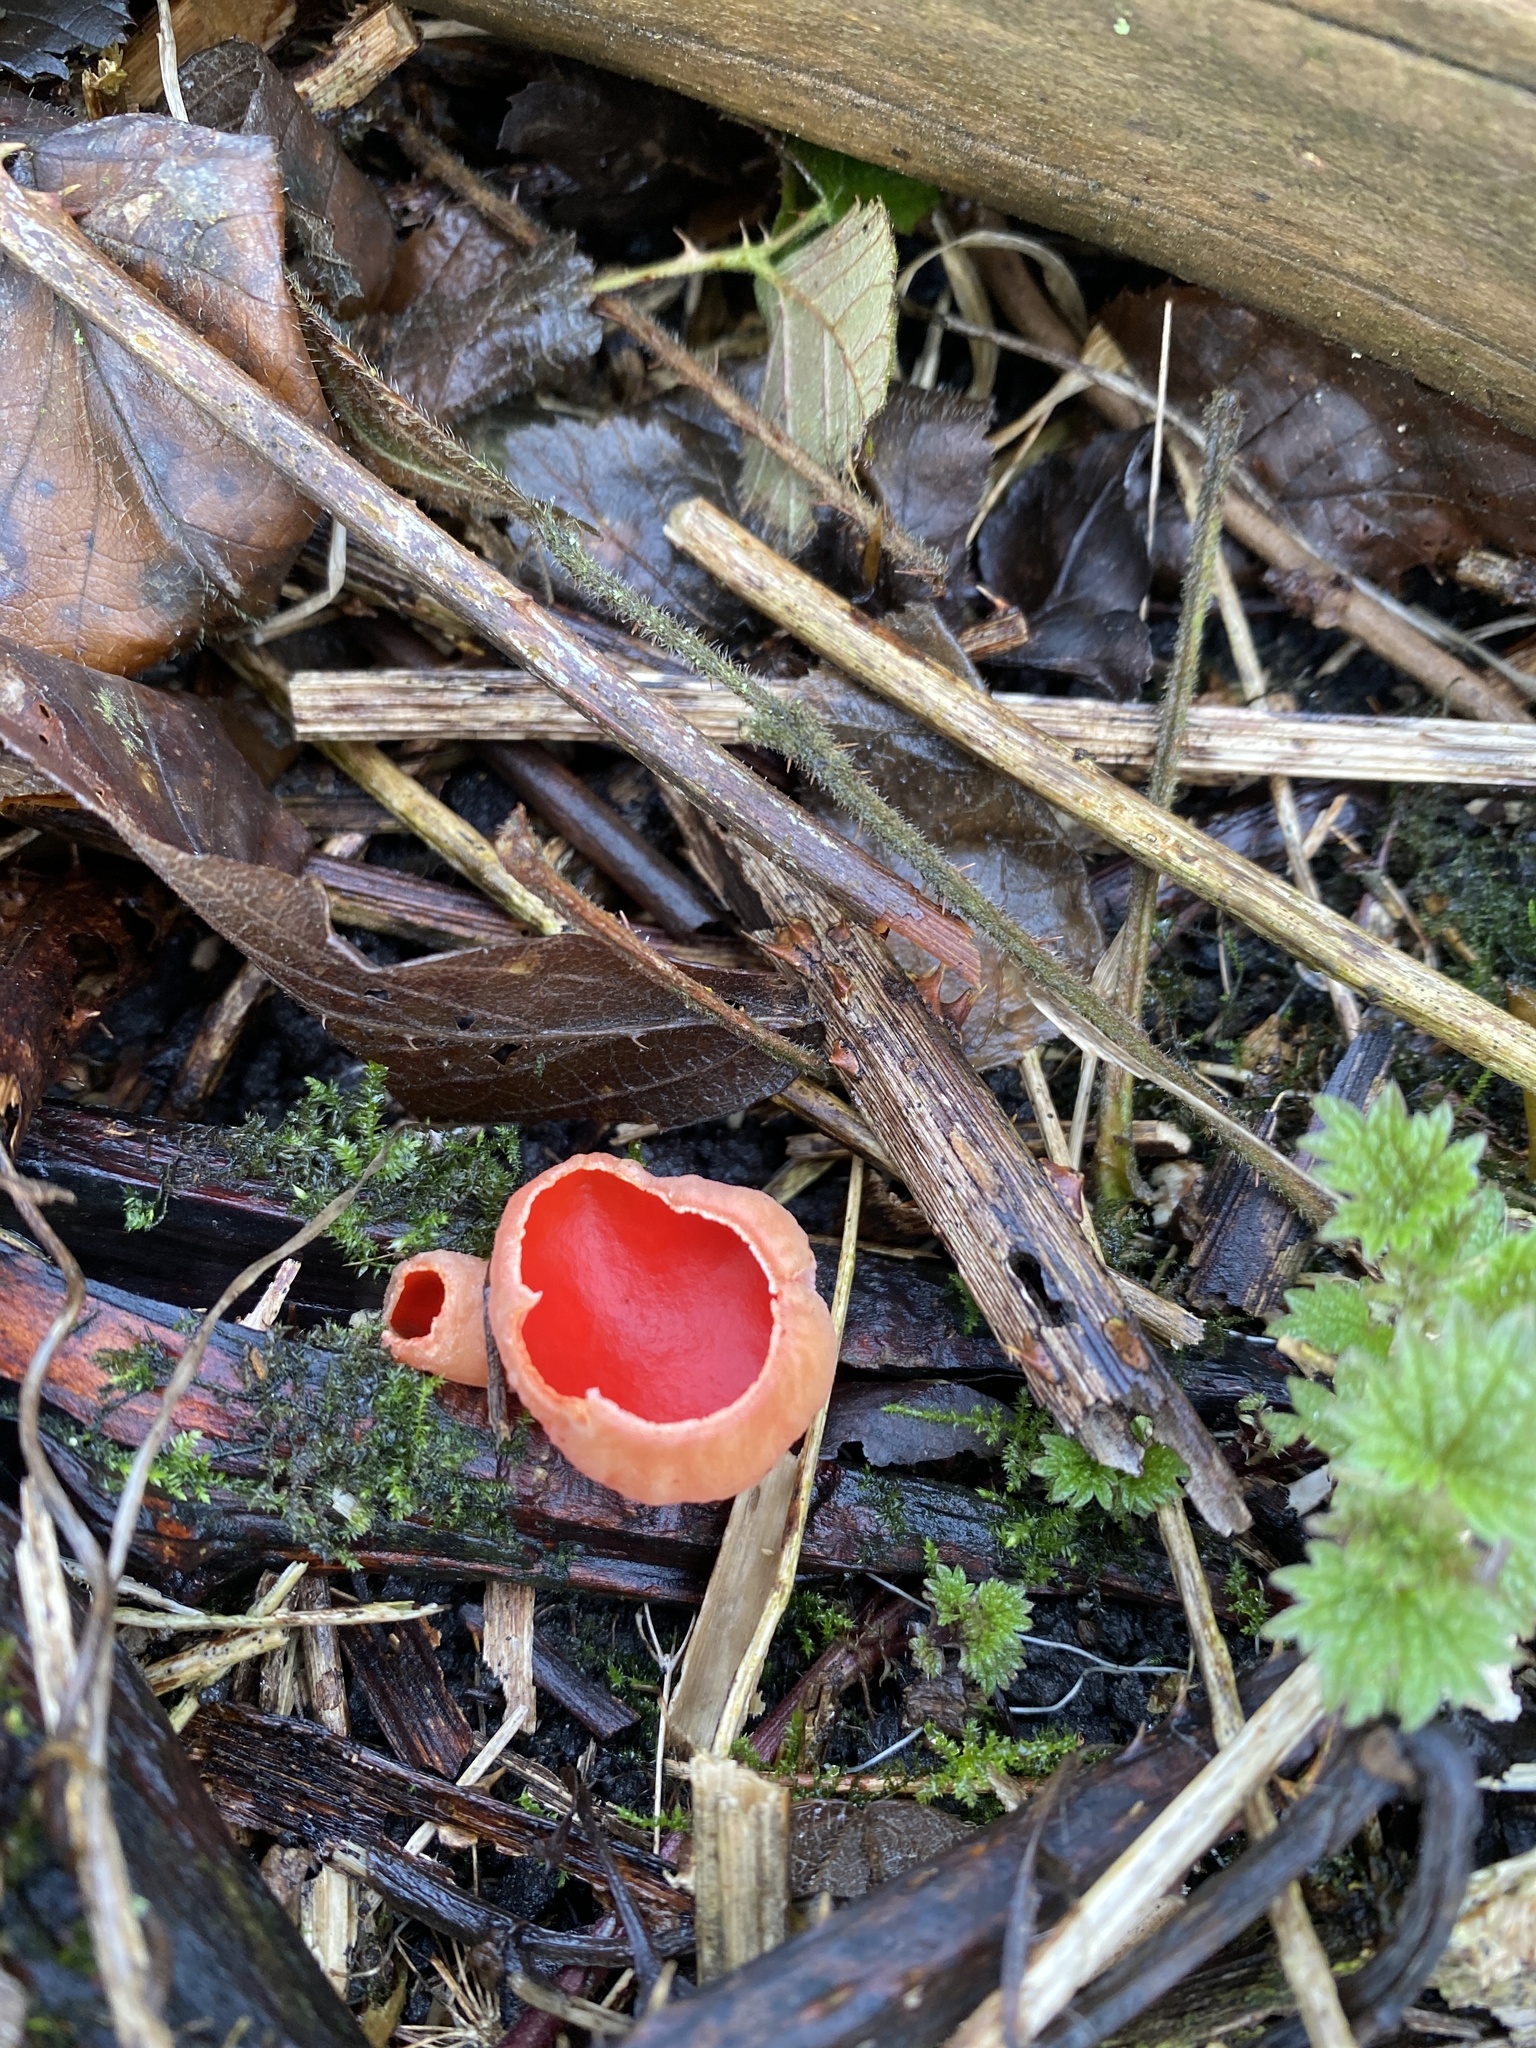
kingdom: Fungi
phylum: Ascomycota
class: Pezizomycetes
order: Pezizales
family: Sarcoscyphaceae
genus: Sarcoscypha
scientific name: Sarcoscypha
